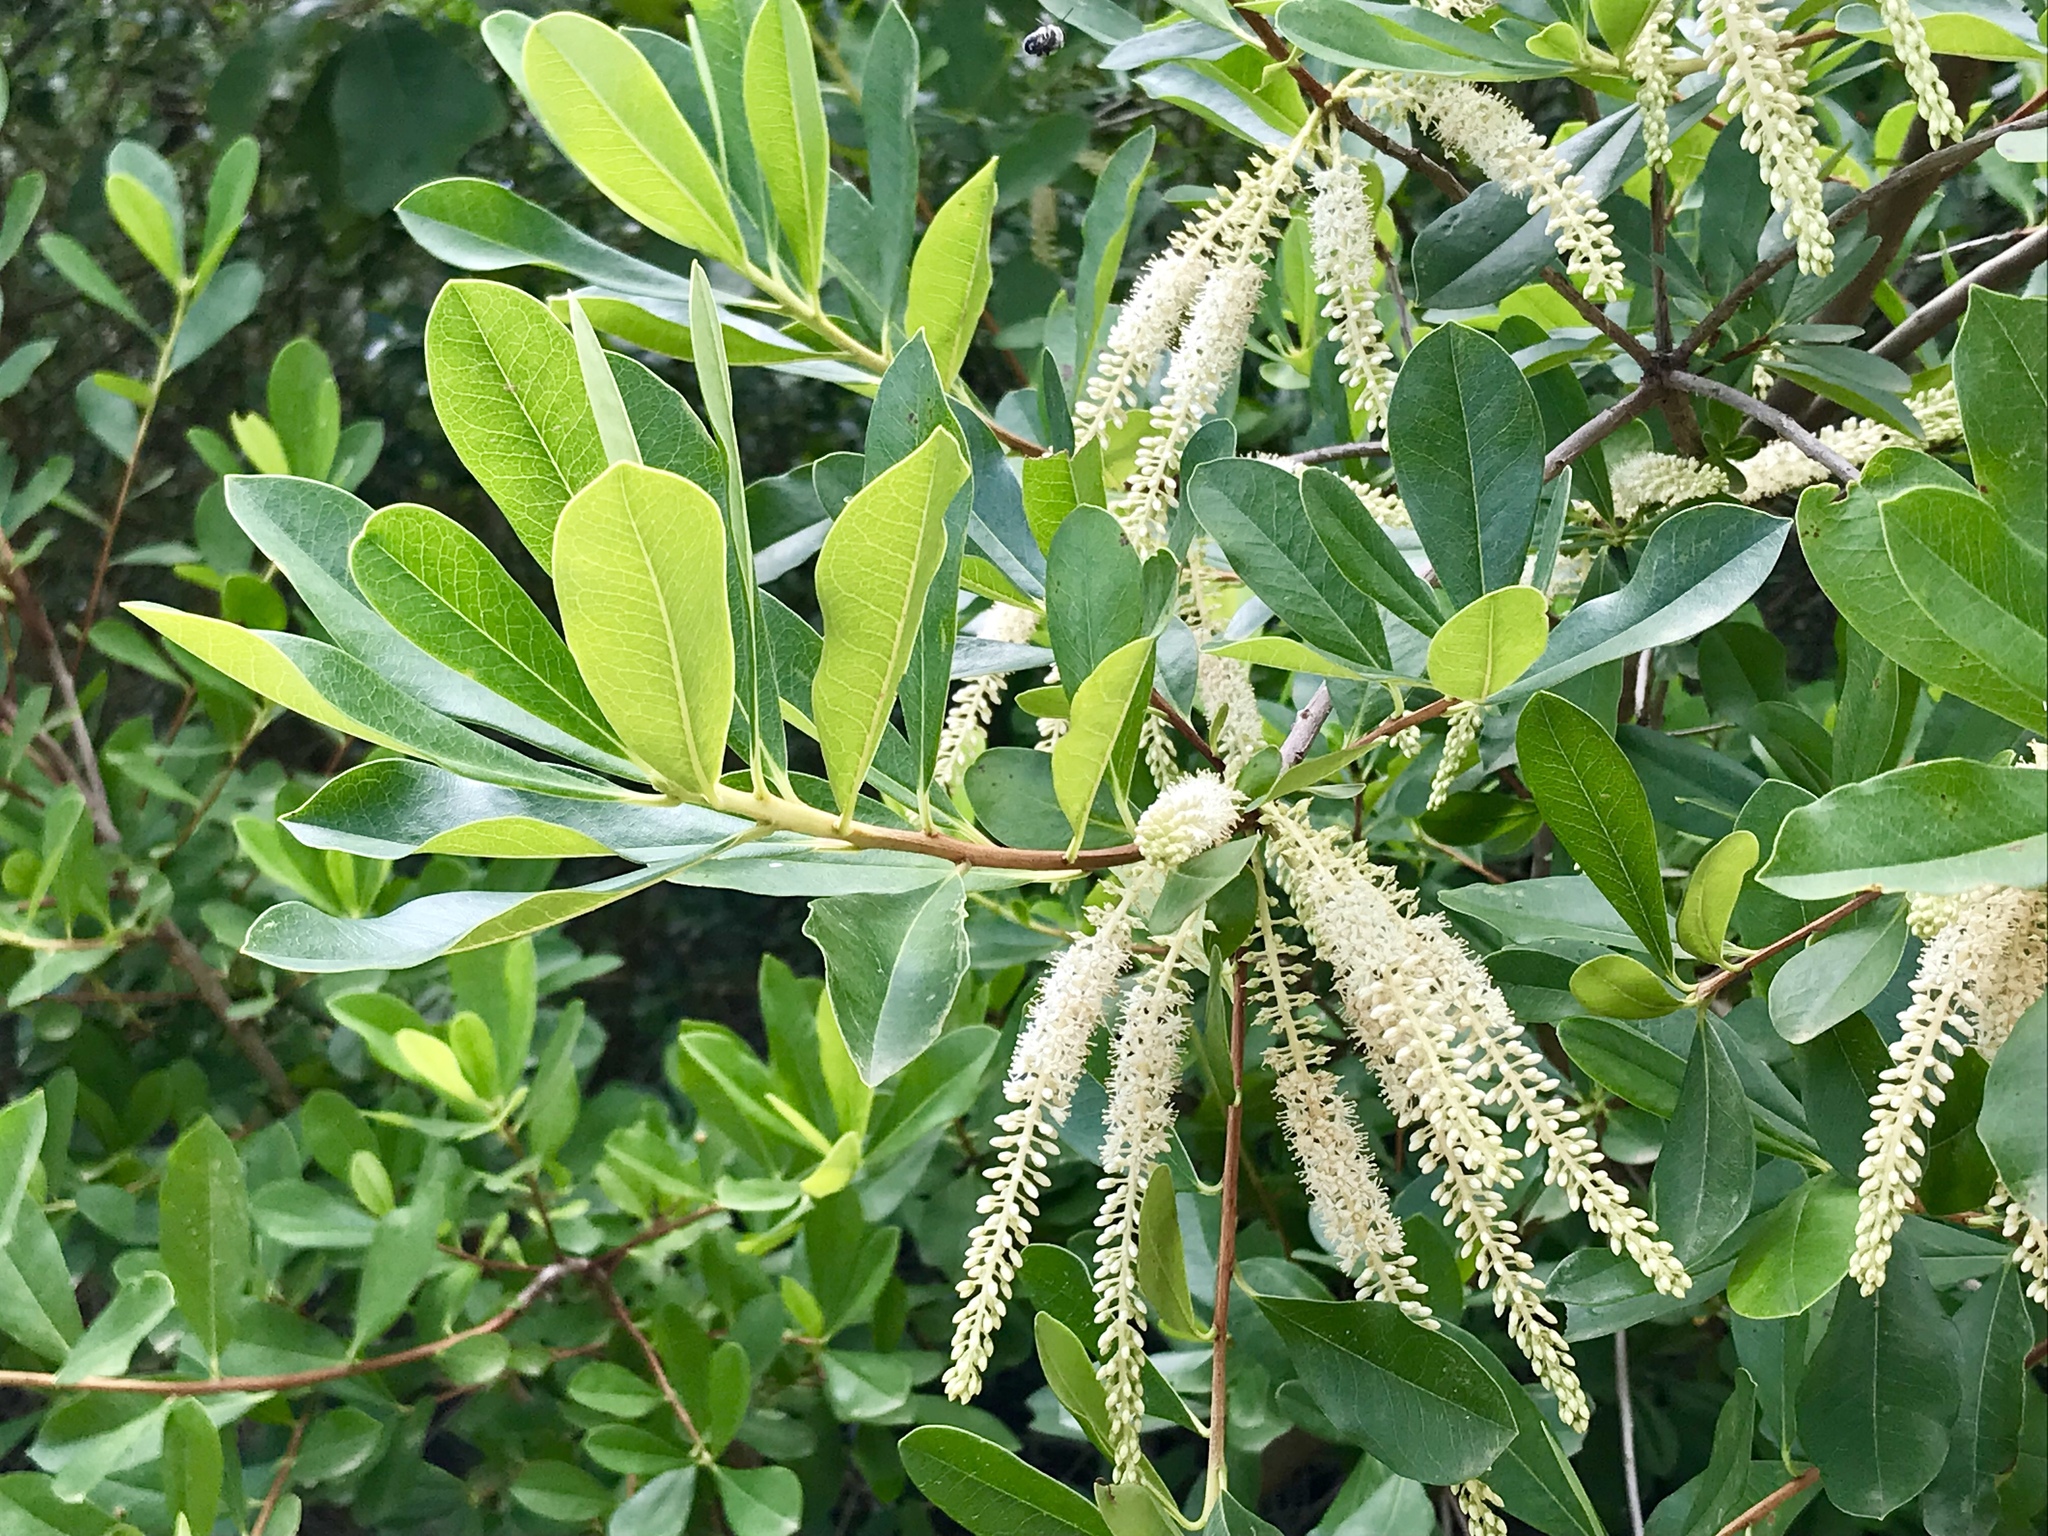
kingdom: Plantae
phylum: Tracheophyta
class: Magnoliopsida
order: Ericales
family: Cyrillaceae
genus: Cyrilla
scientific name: Cyrilla racemiflora
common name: Black titi
